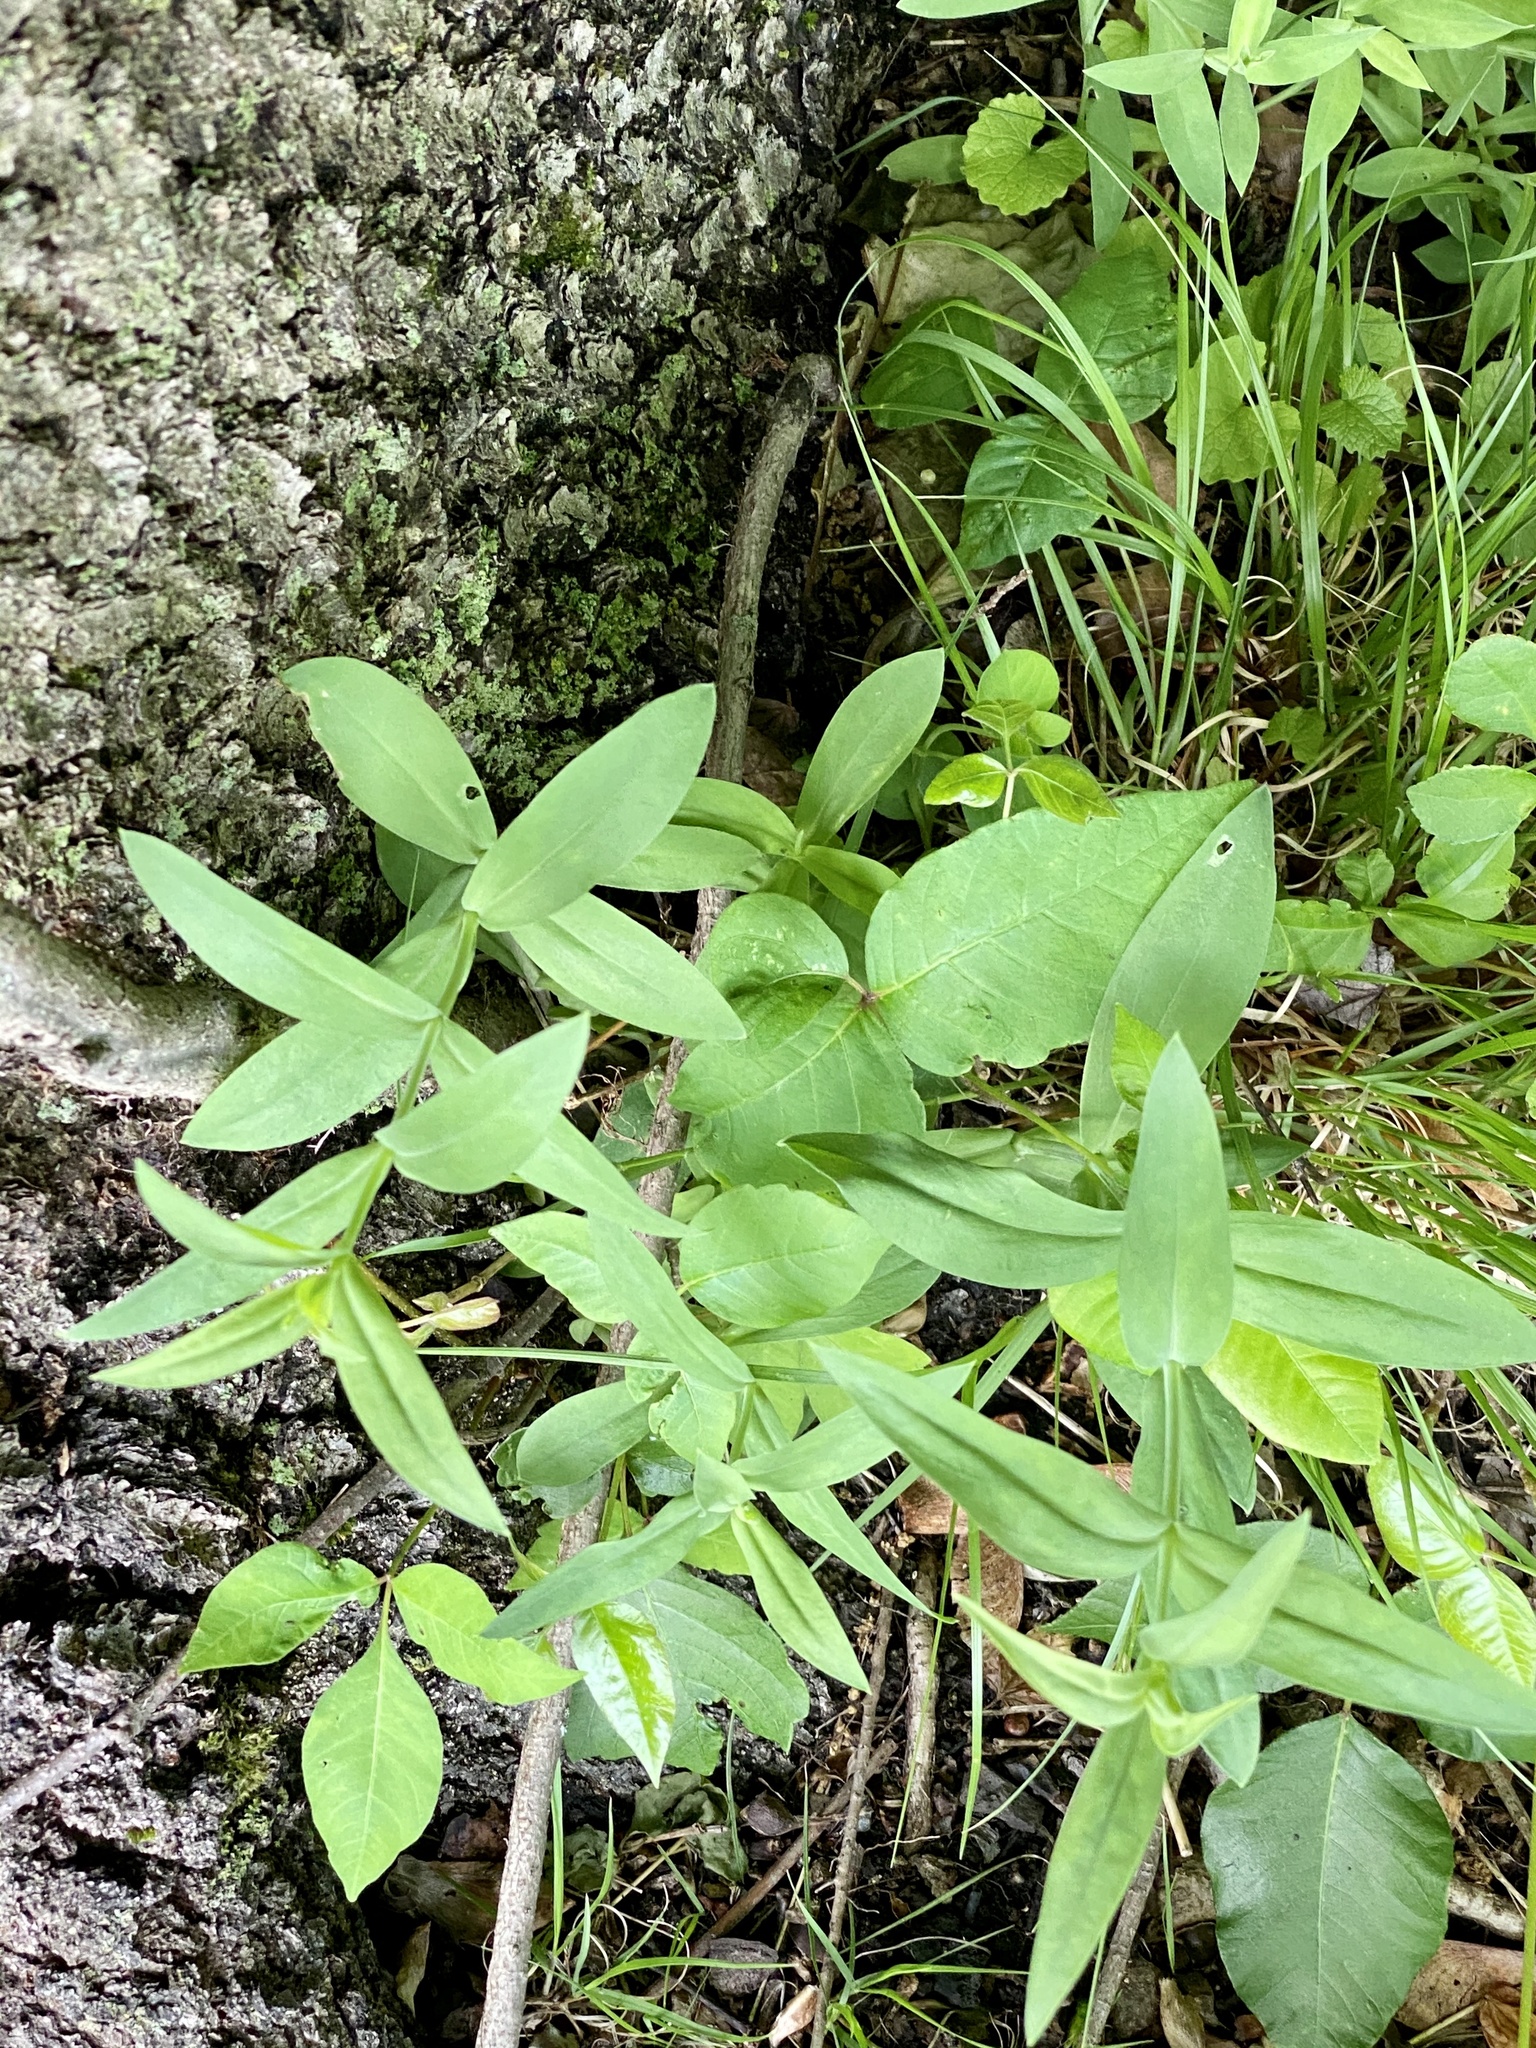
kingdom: Plantae
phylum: Tracheophyta
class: Magnoliopsida
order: Caryophyllales
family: Caryophyllaceae
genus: Silene
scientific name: Silene vulgaris
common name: Bladder campion
